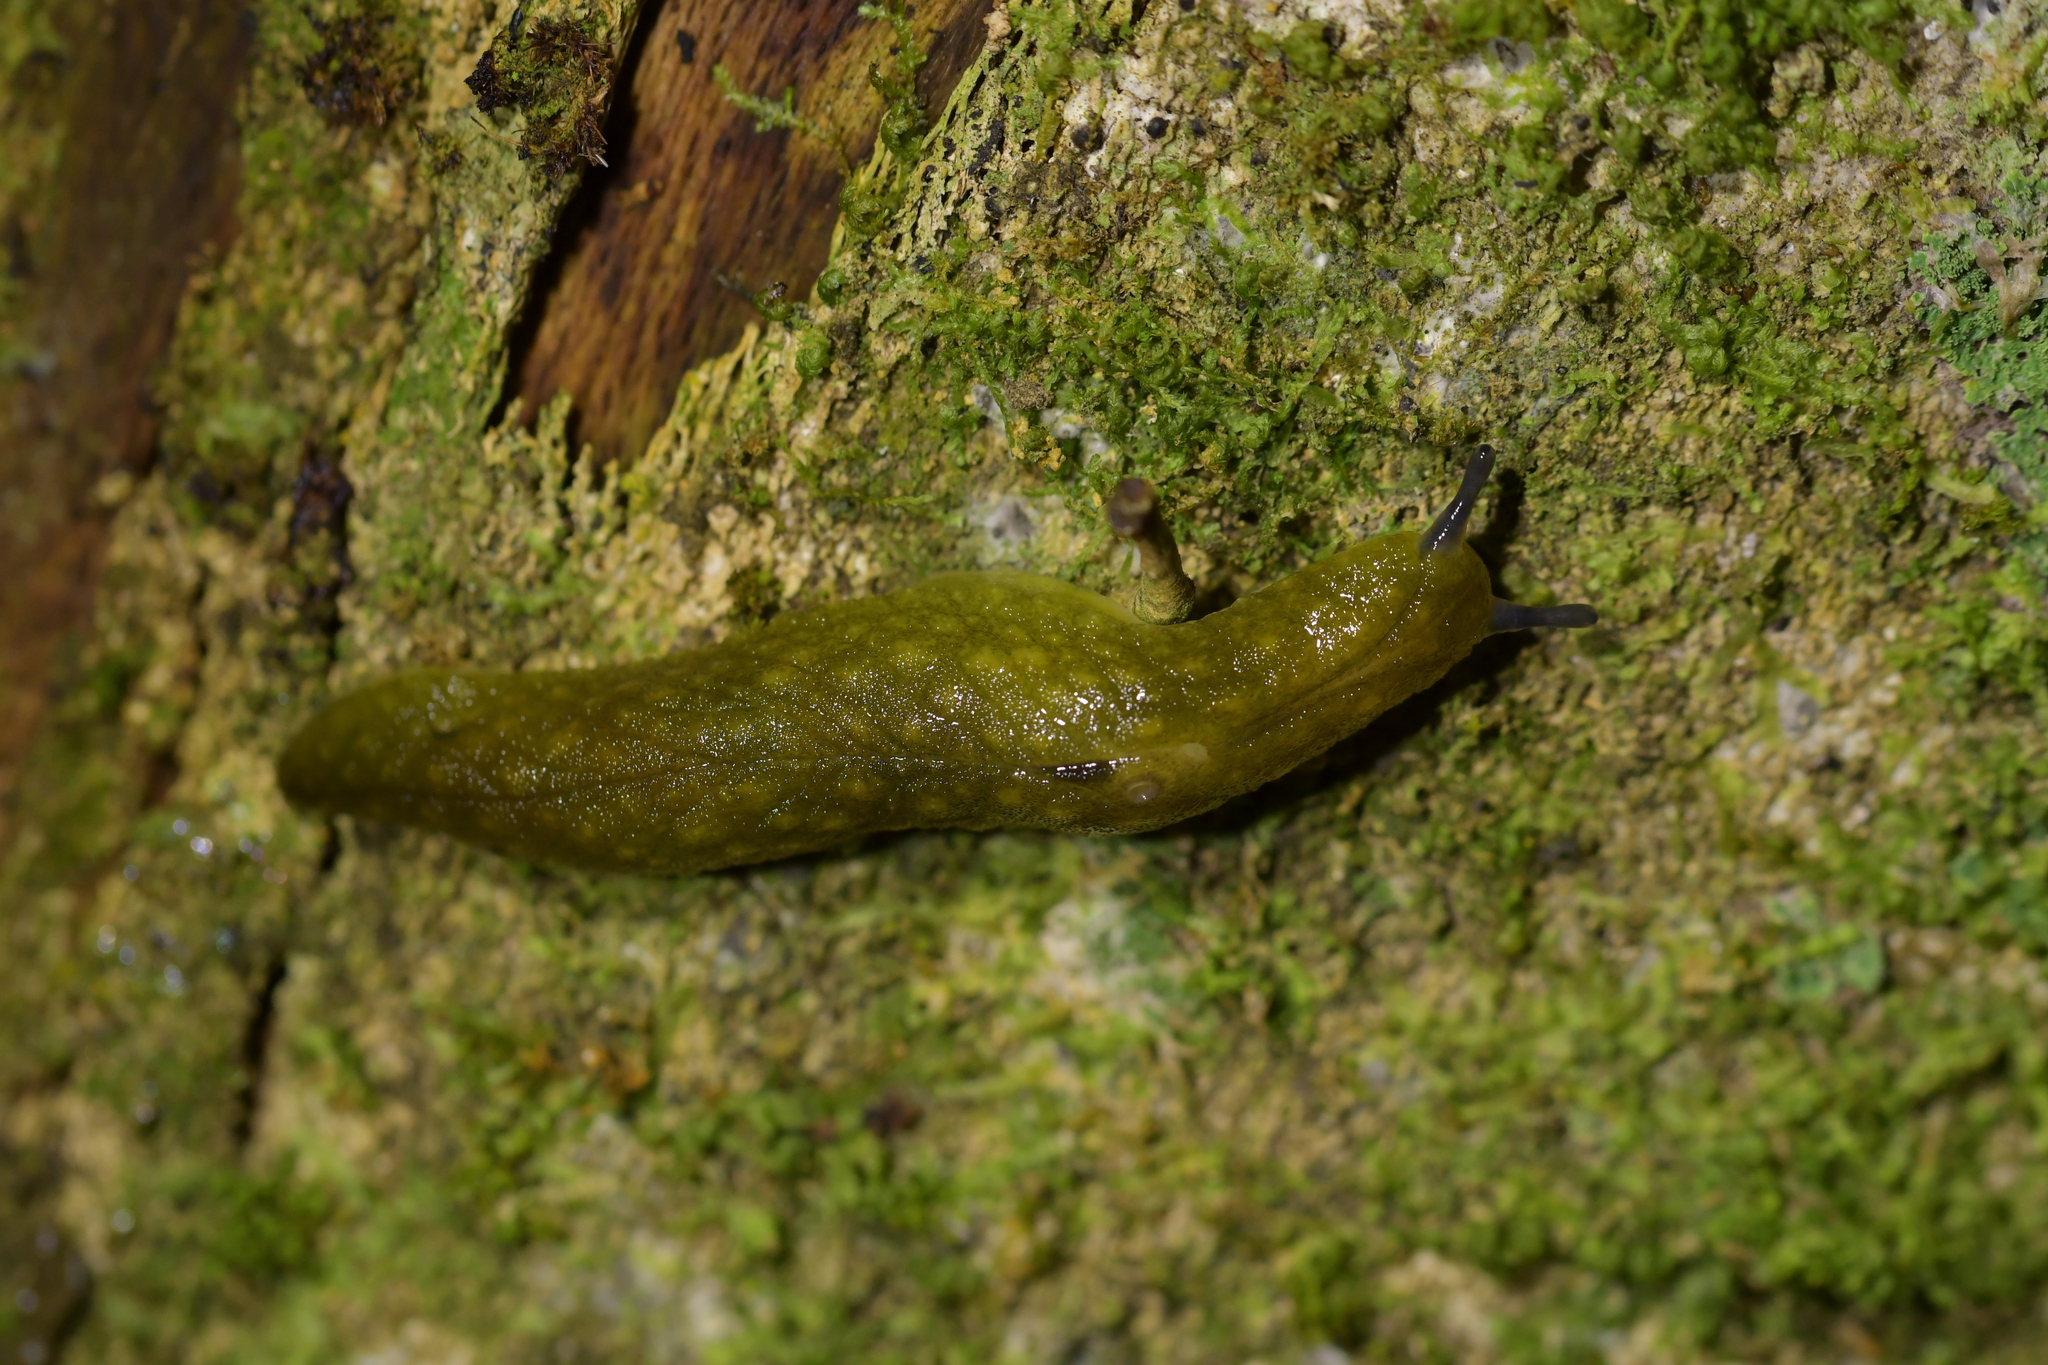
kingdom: Animalia
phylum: Mollusca
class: Gastropoda
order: Stylommatophora
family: Athoracophoridae
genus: Athoracophorus
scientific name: Athoracophorus papillatus
